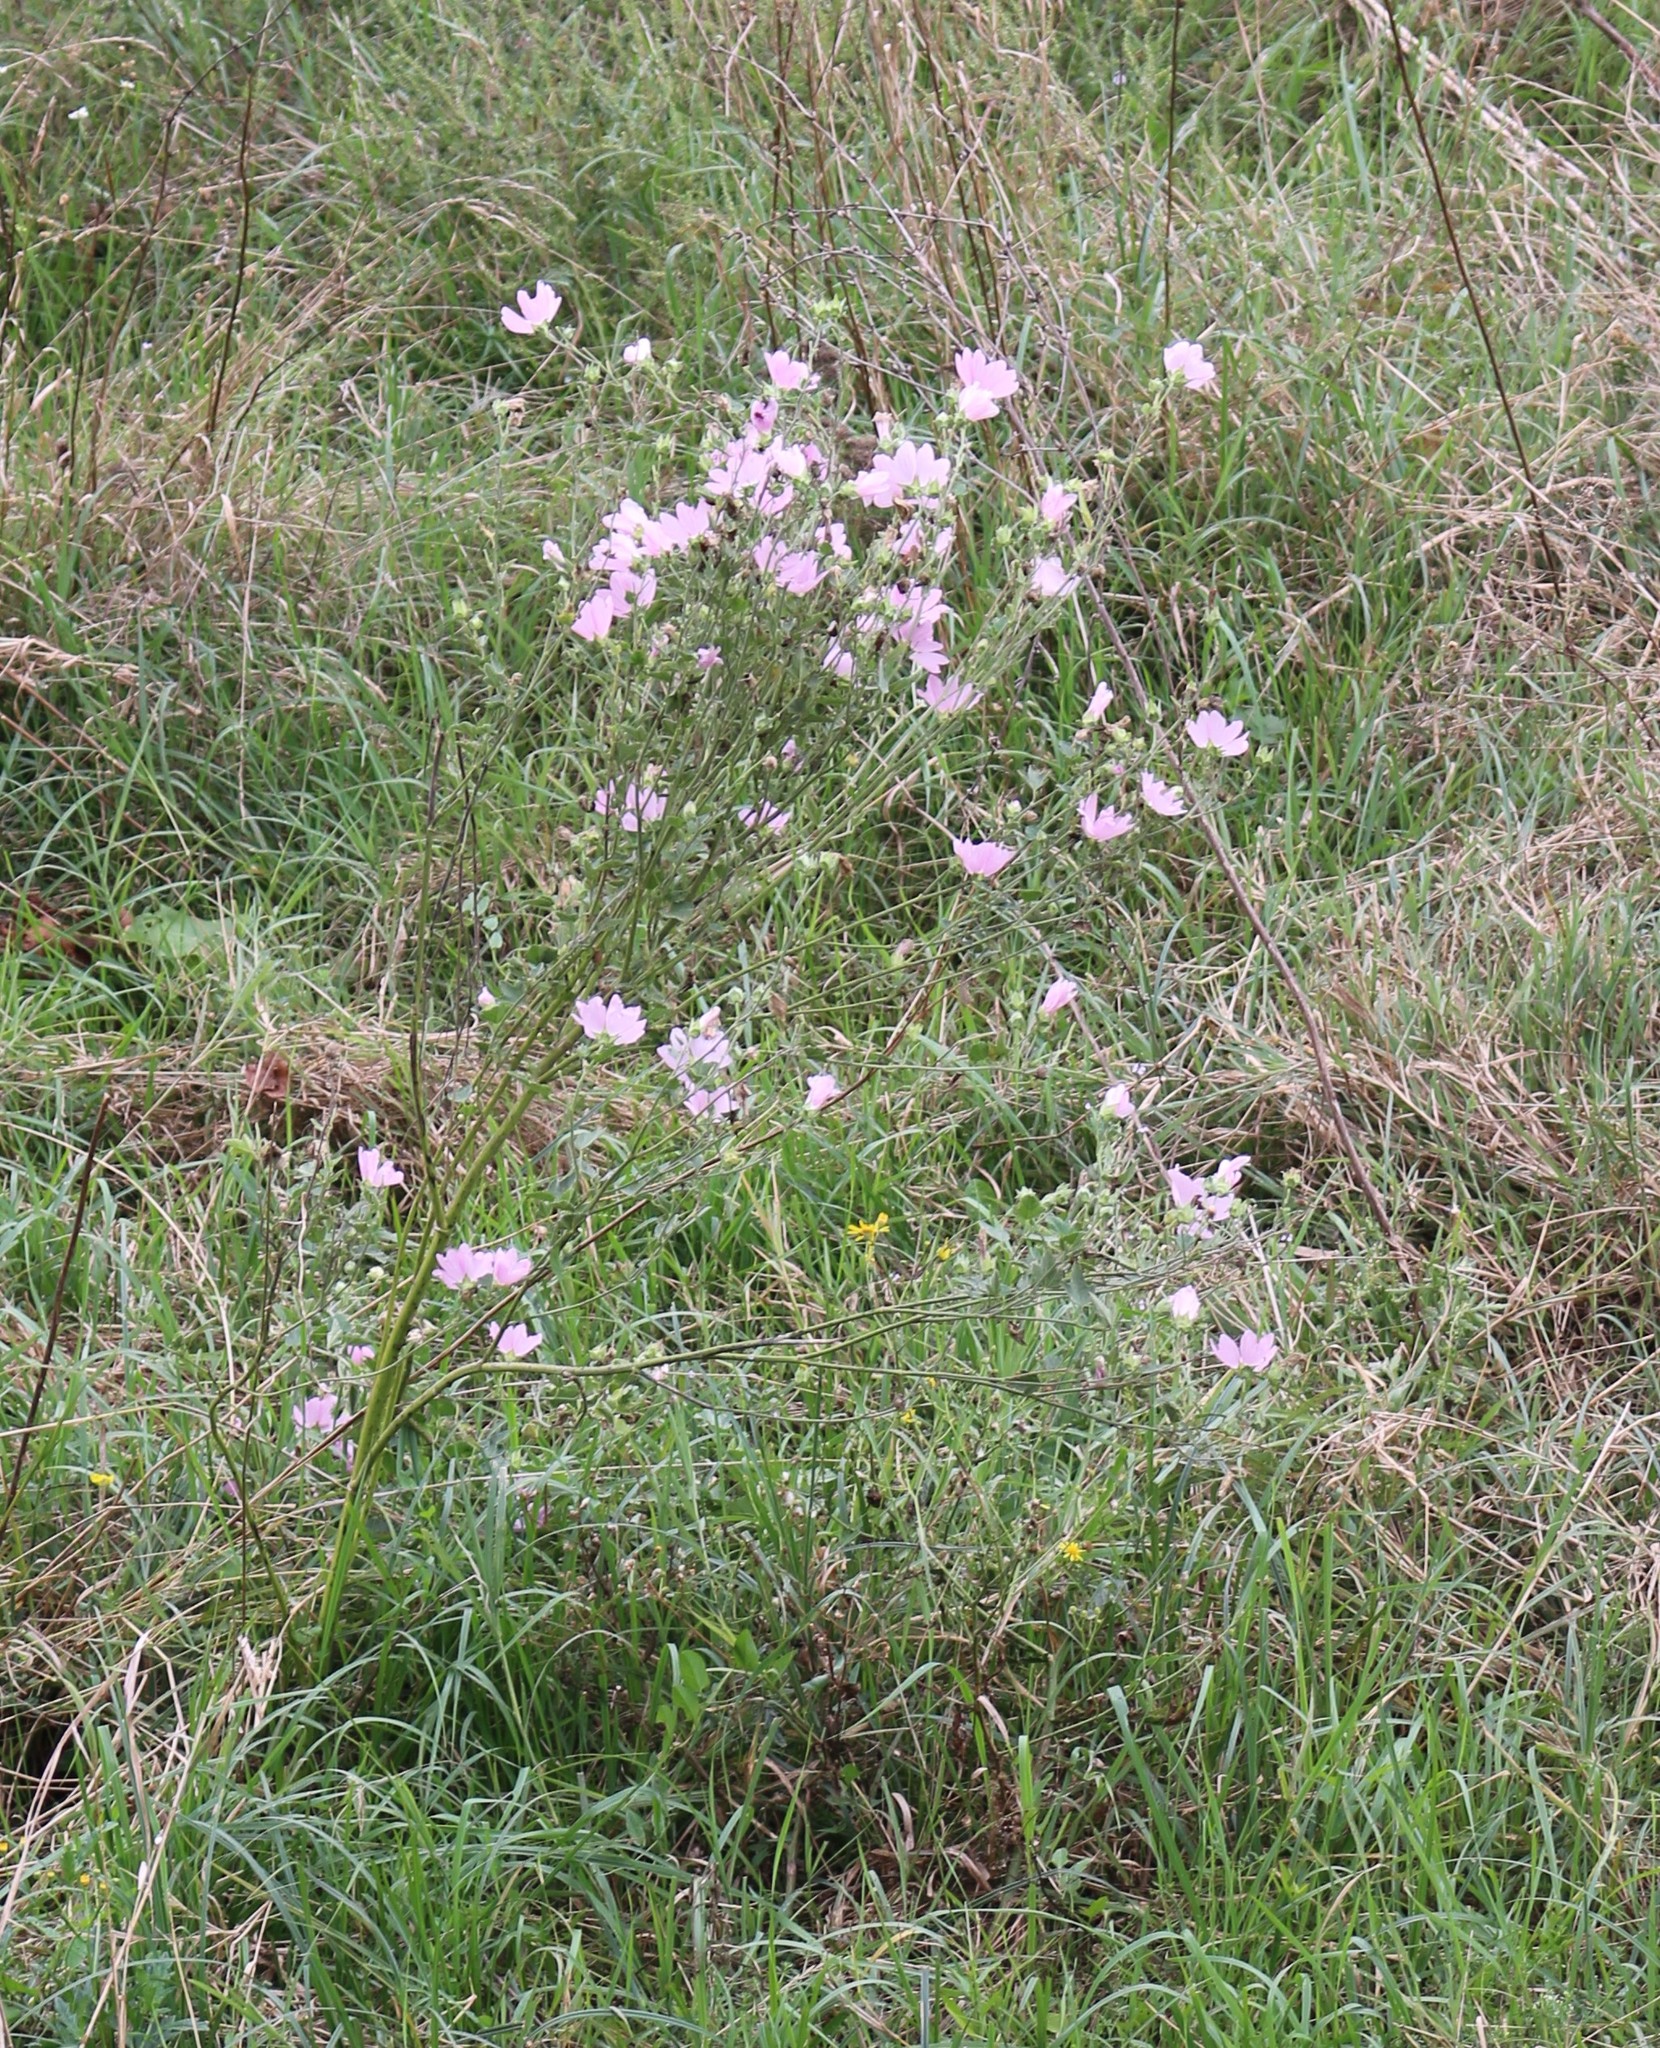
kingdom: Plantae
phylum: Tracheophyta
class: Magnoliopsida
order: Malvales
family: Malvaceae
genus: Malva
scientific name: Malva thuringiaca
